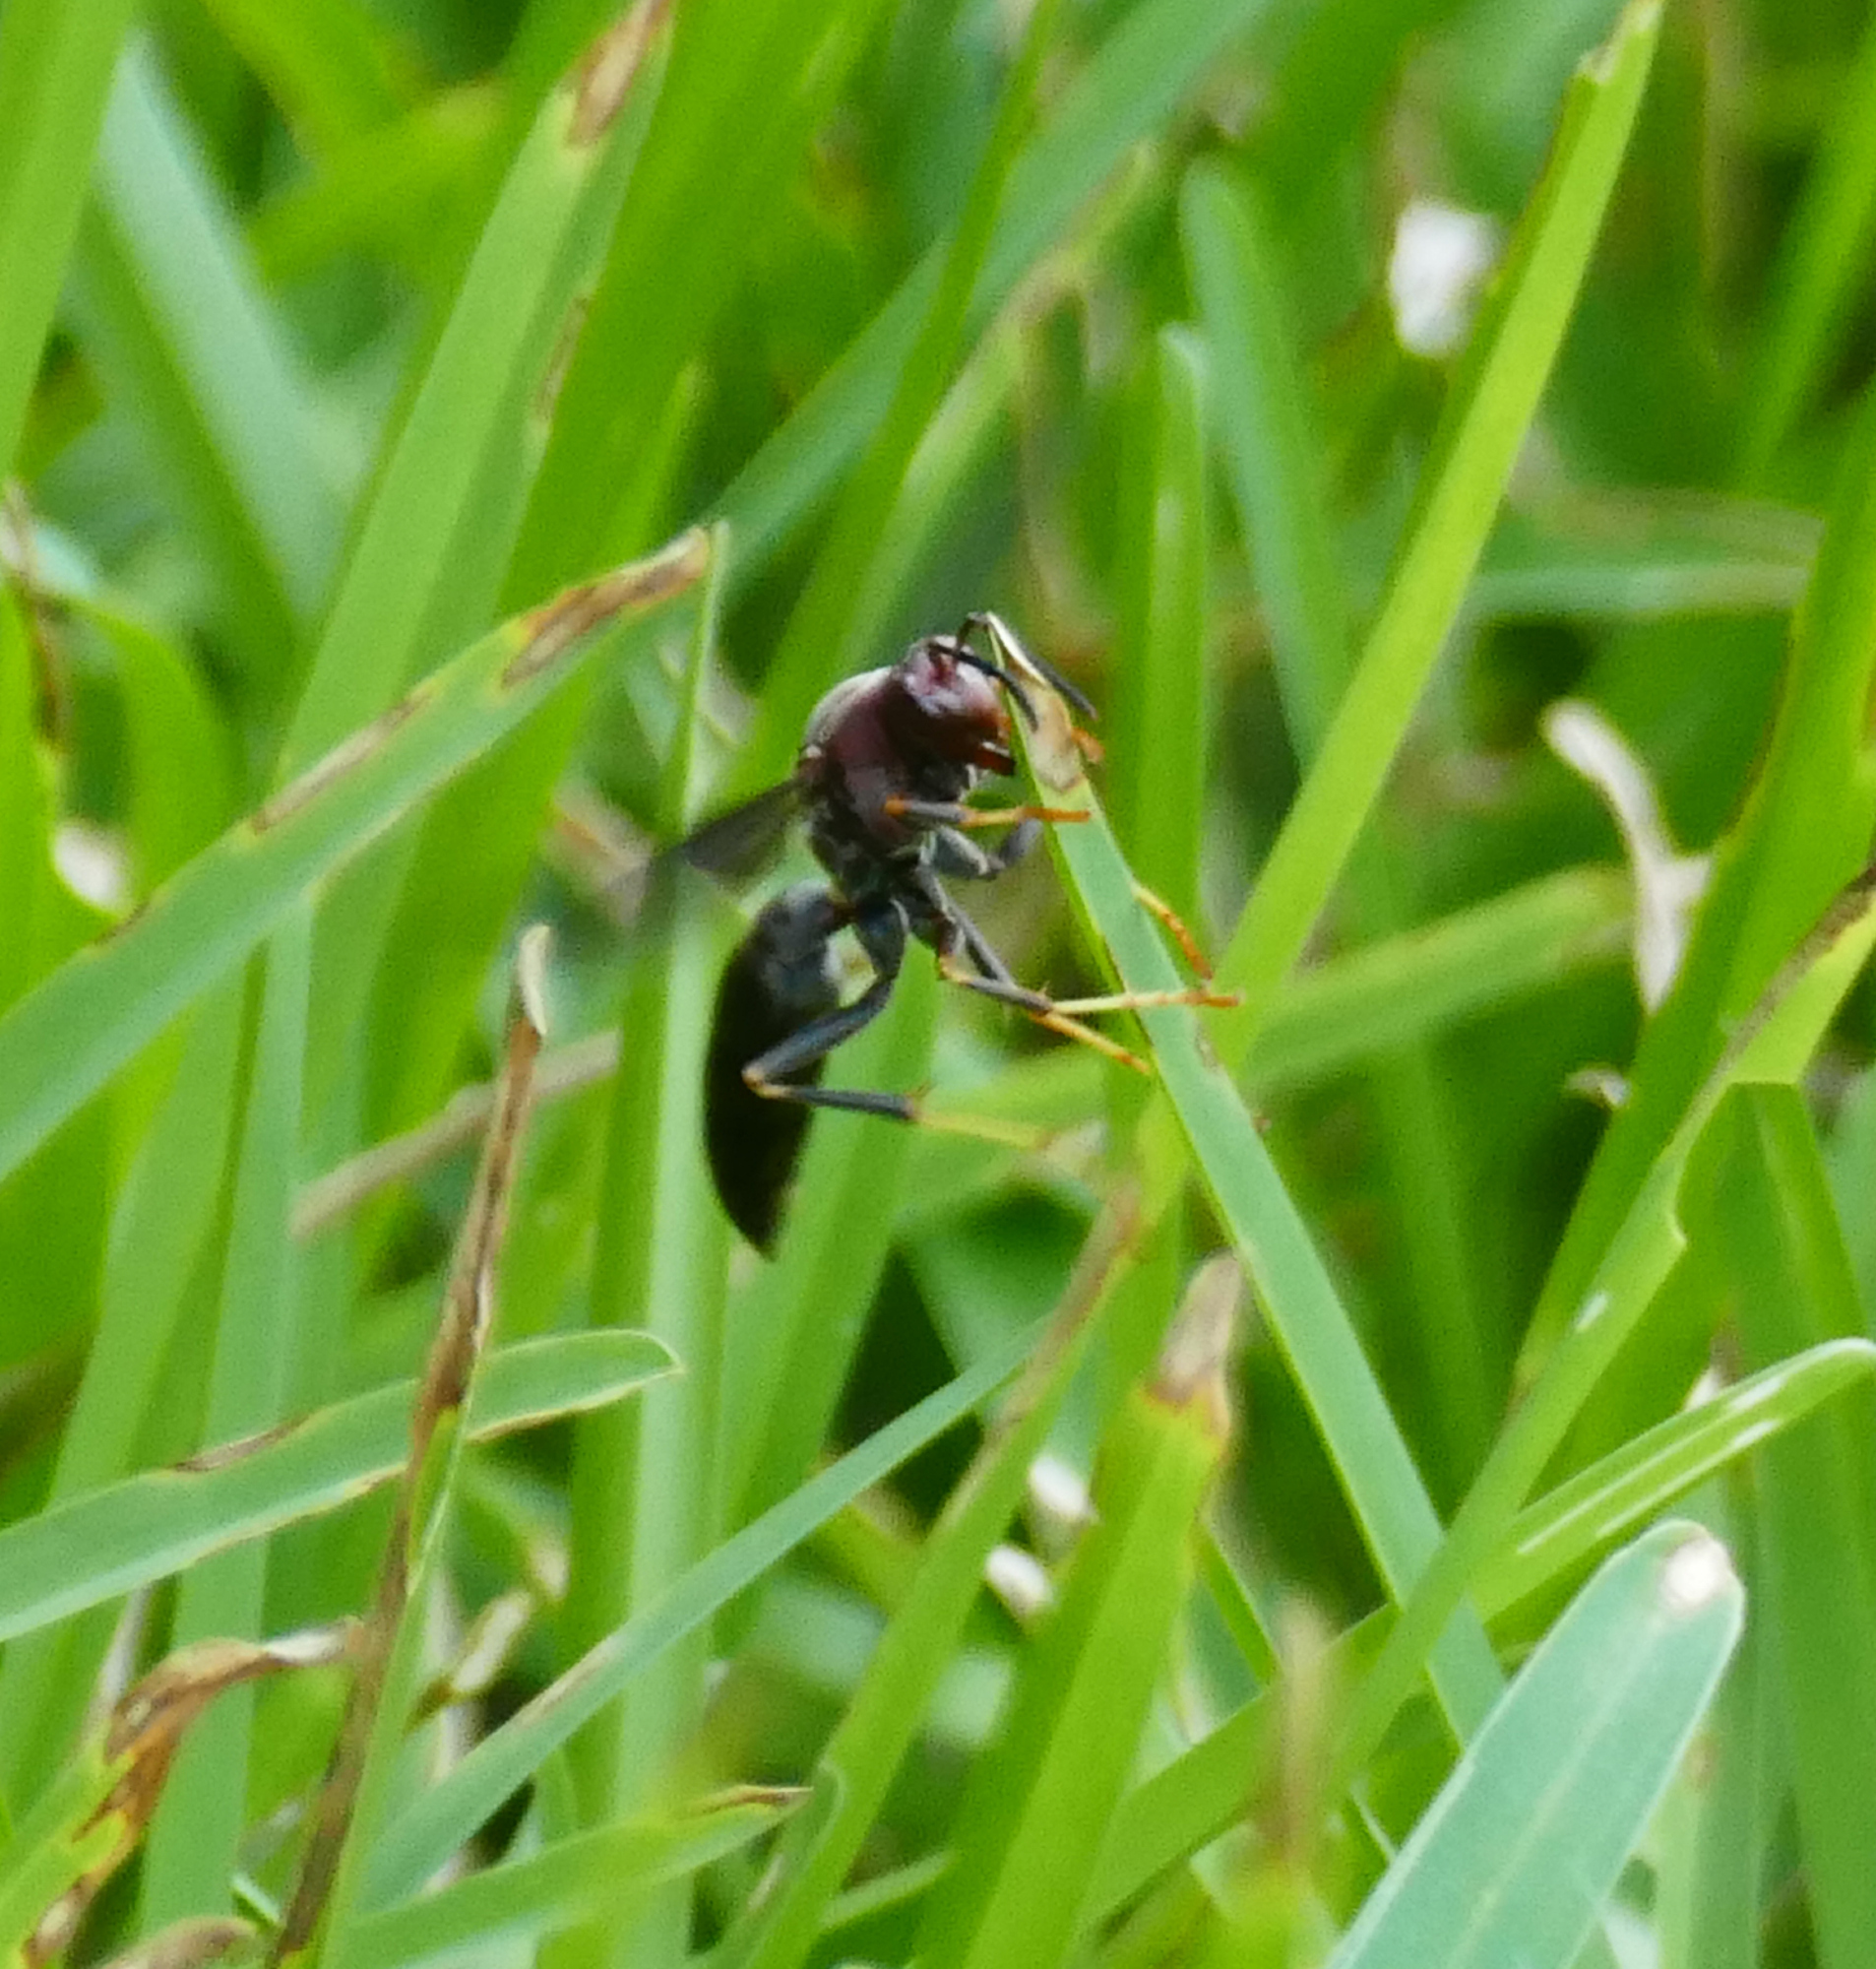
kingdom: Animalia
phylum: Arthropoda
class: Insecta
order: Hymenoptera
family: Eumenidae
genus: Polistes
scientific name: Polistes metricus
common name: Metric paper wasp
